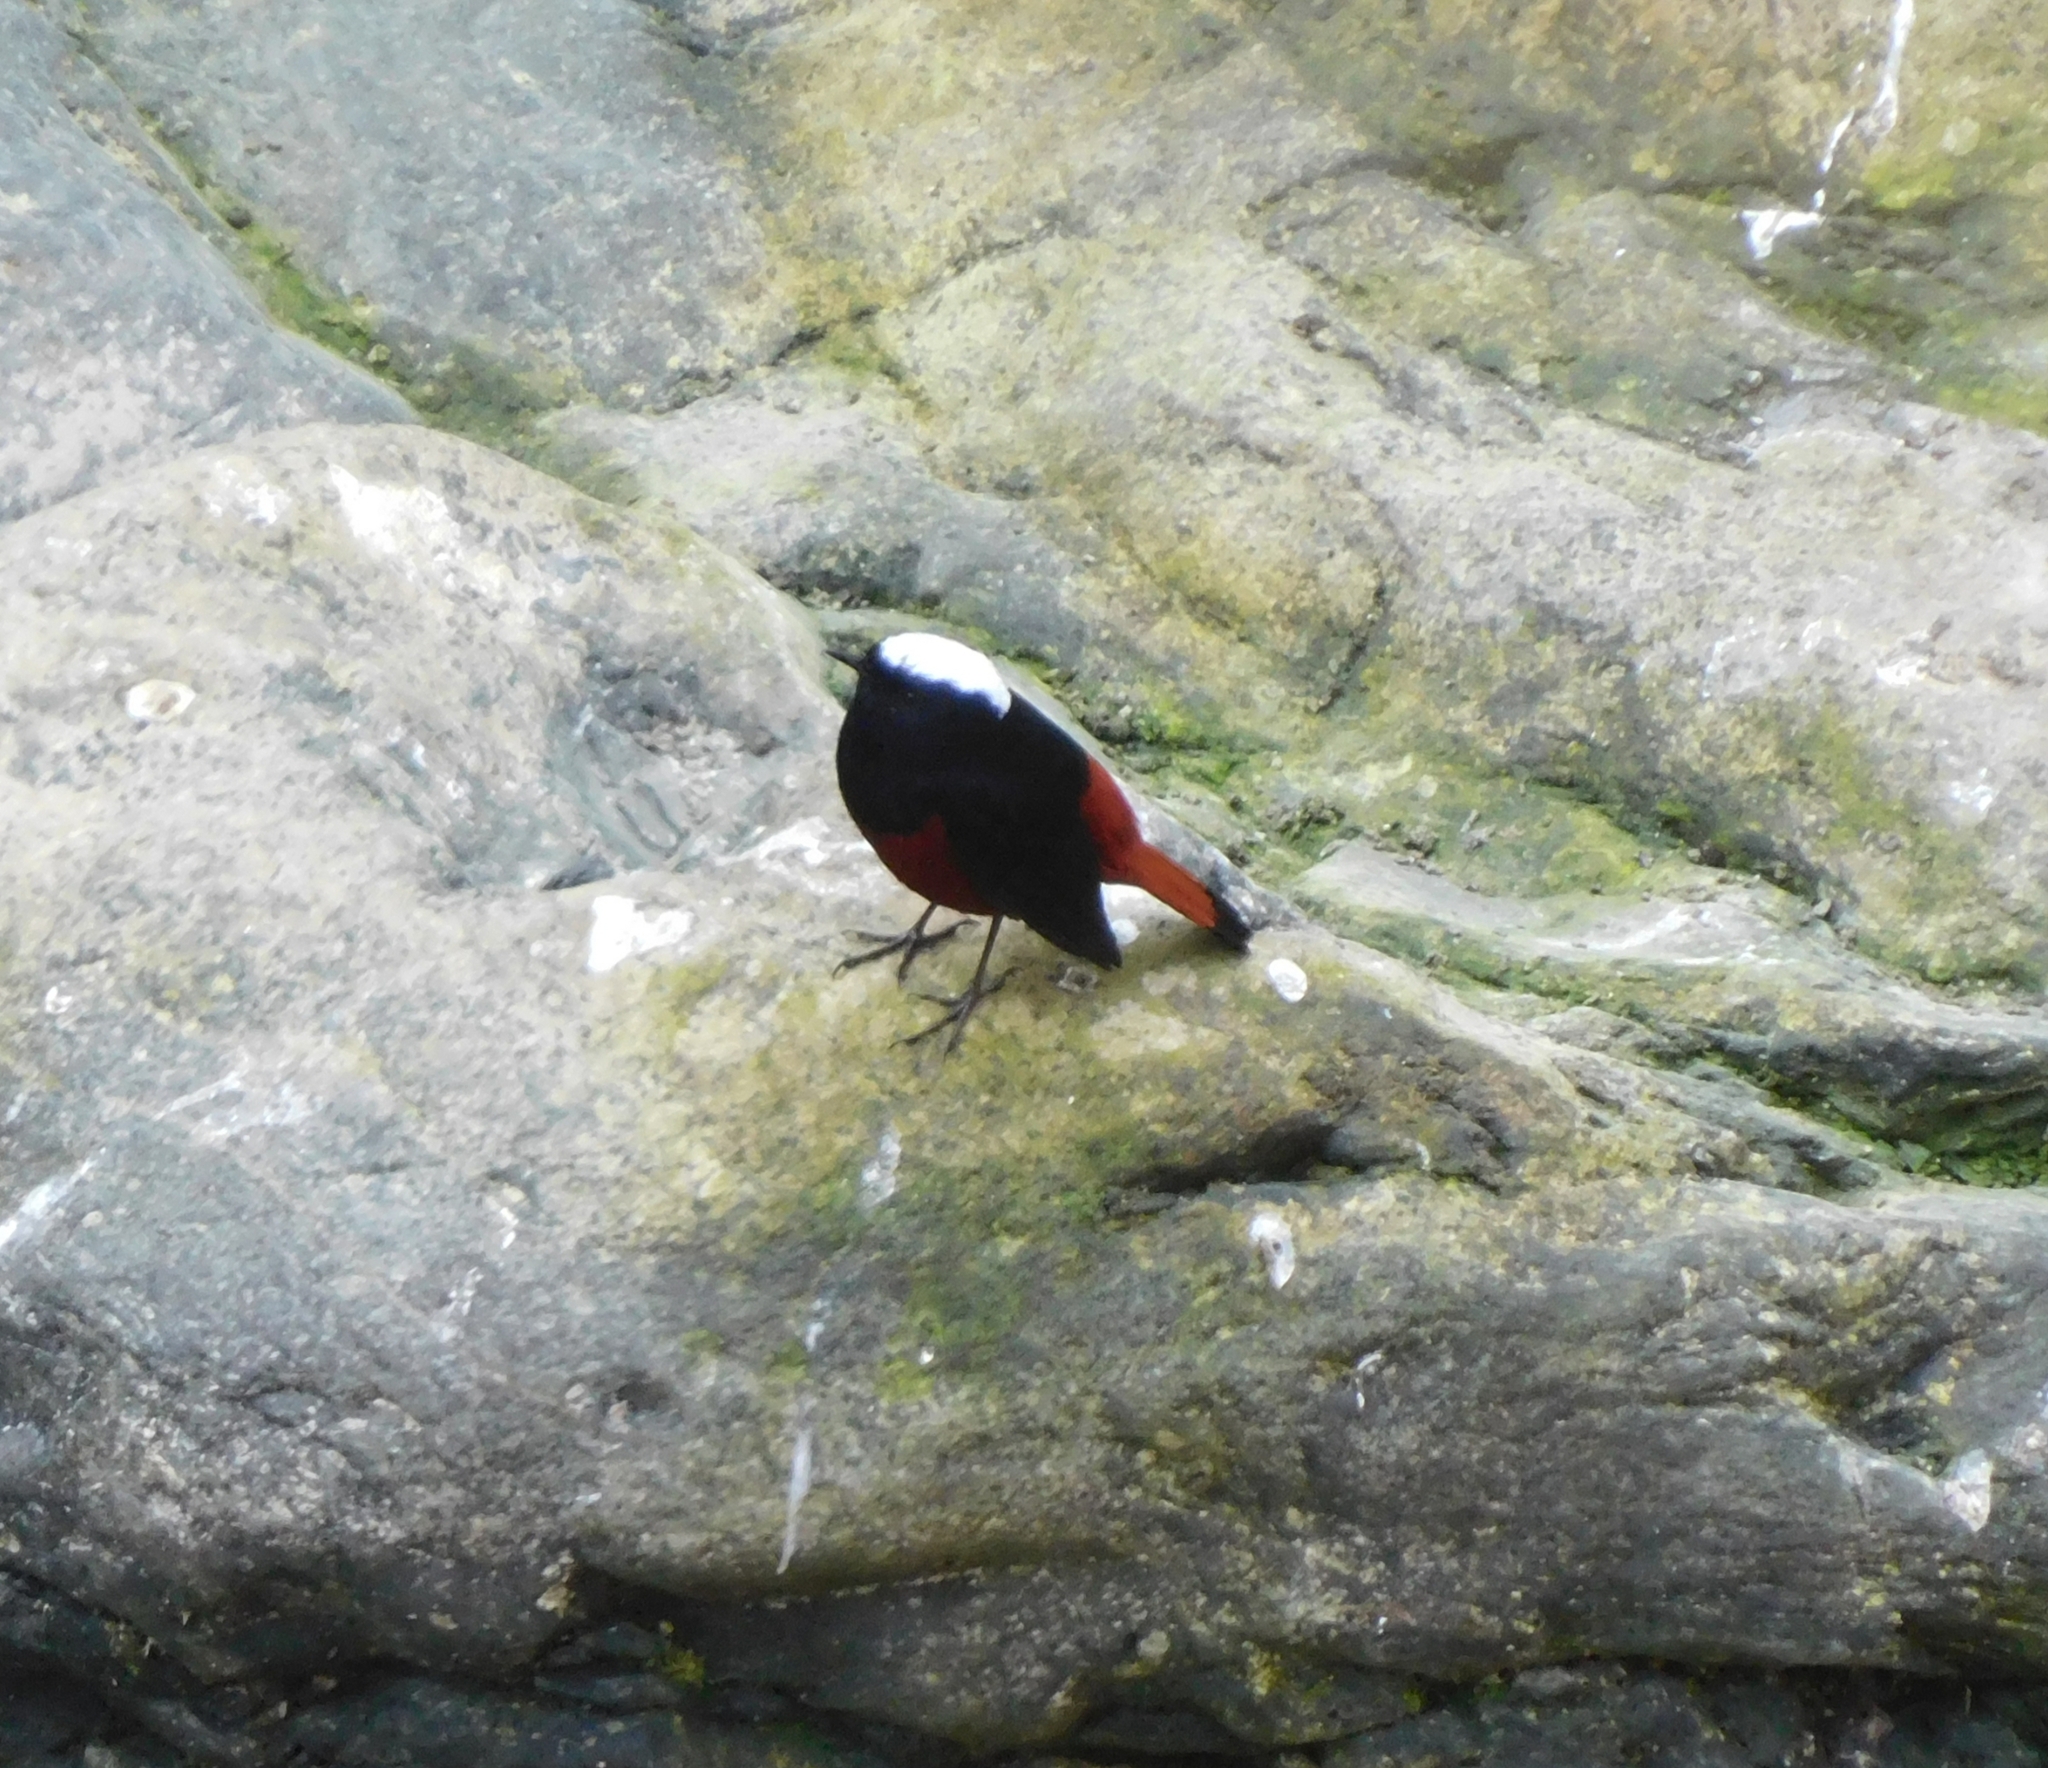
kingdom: Animalia
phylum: Chordata
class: Aves
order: Passeriformes
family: Muscicapidae
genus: Chaimarrornis
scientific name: Chaimarrornis leucocephalus
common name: White-capped redstart
